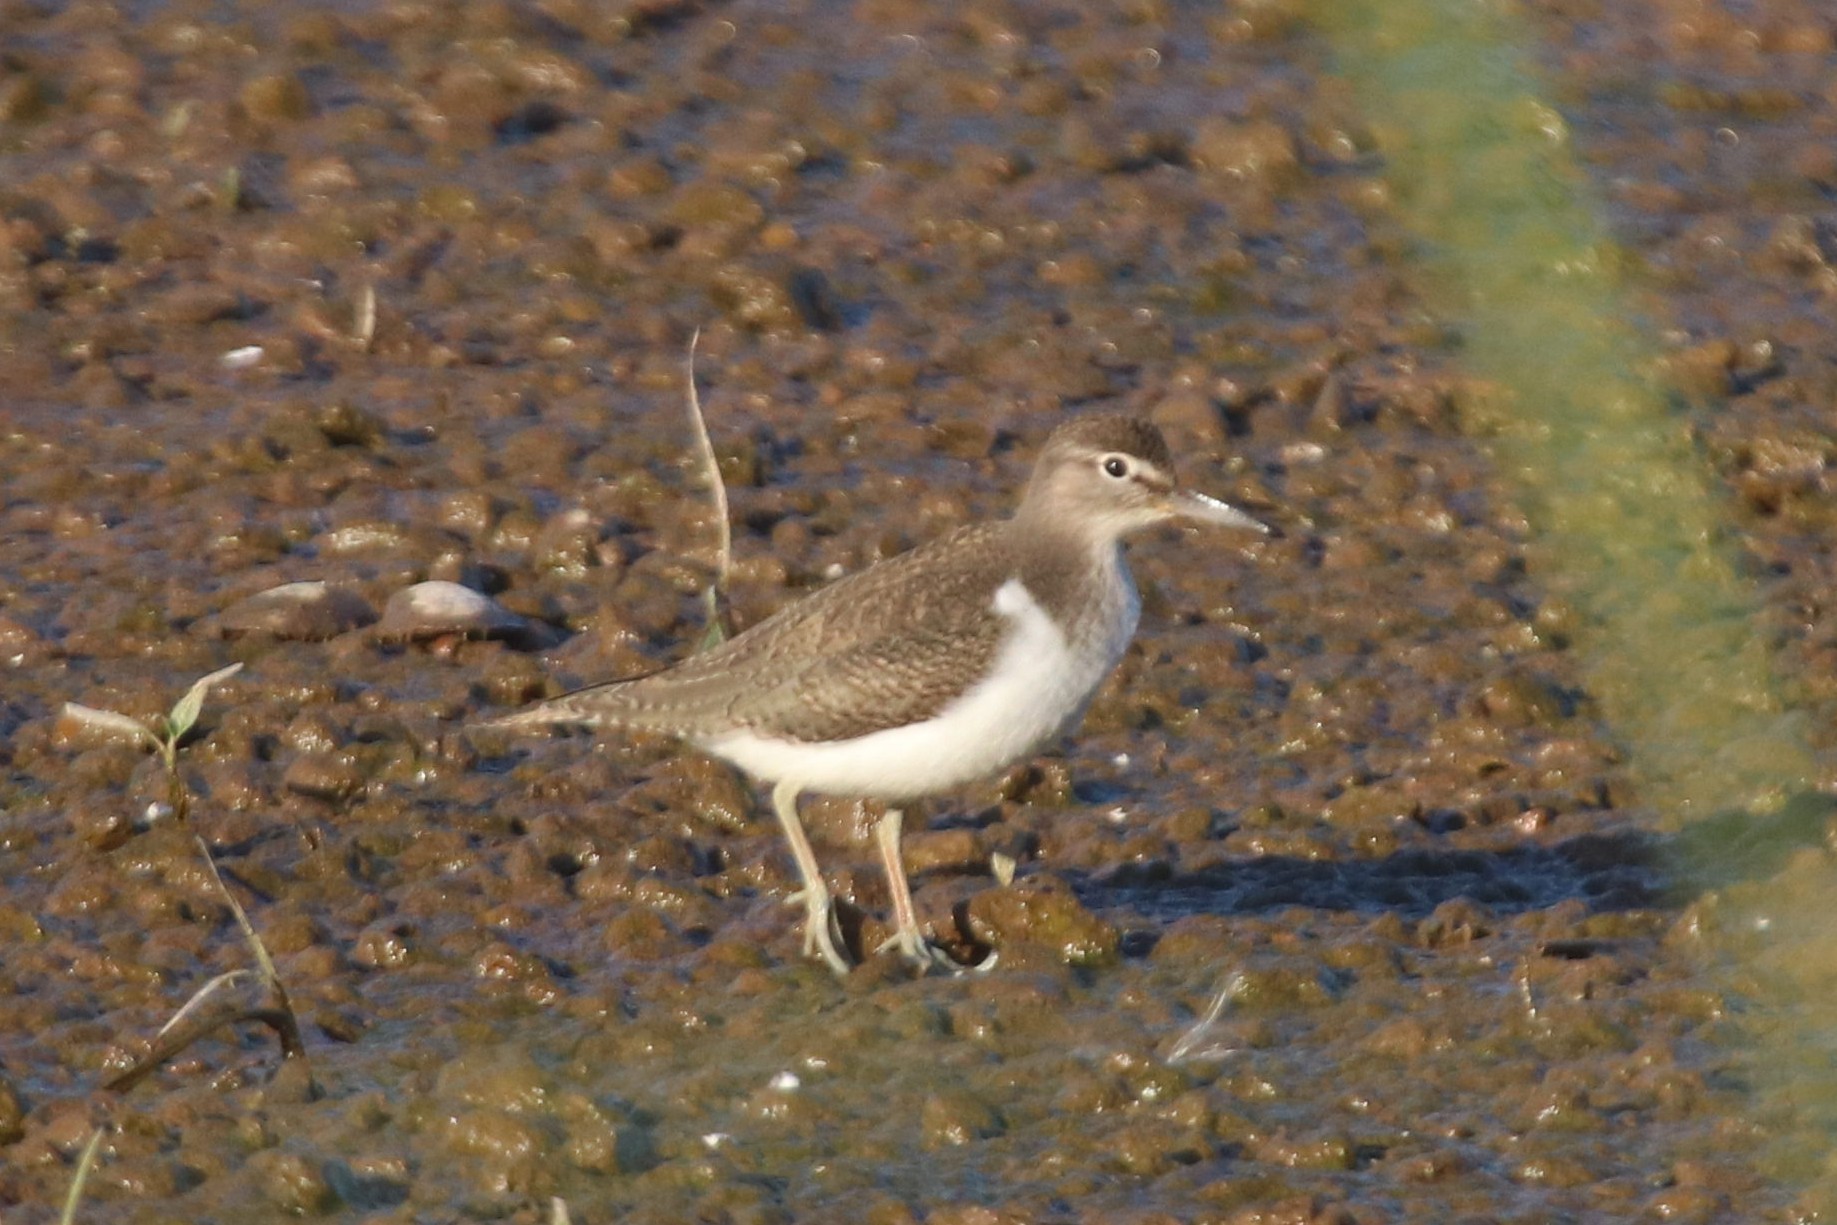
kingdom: Animalia
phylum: Chordata
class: Aves
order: Charadriiformes
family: Scolopacidae
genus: Actitis
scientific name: Actitis hypoleucos
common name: Common sandpiper
